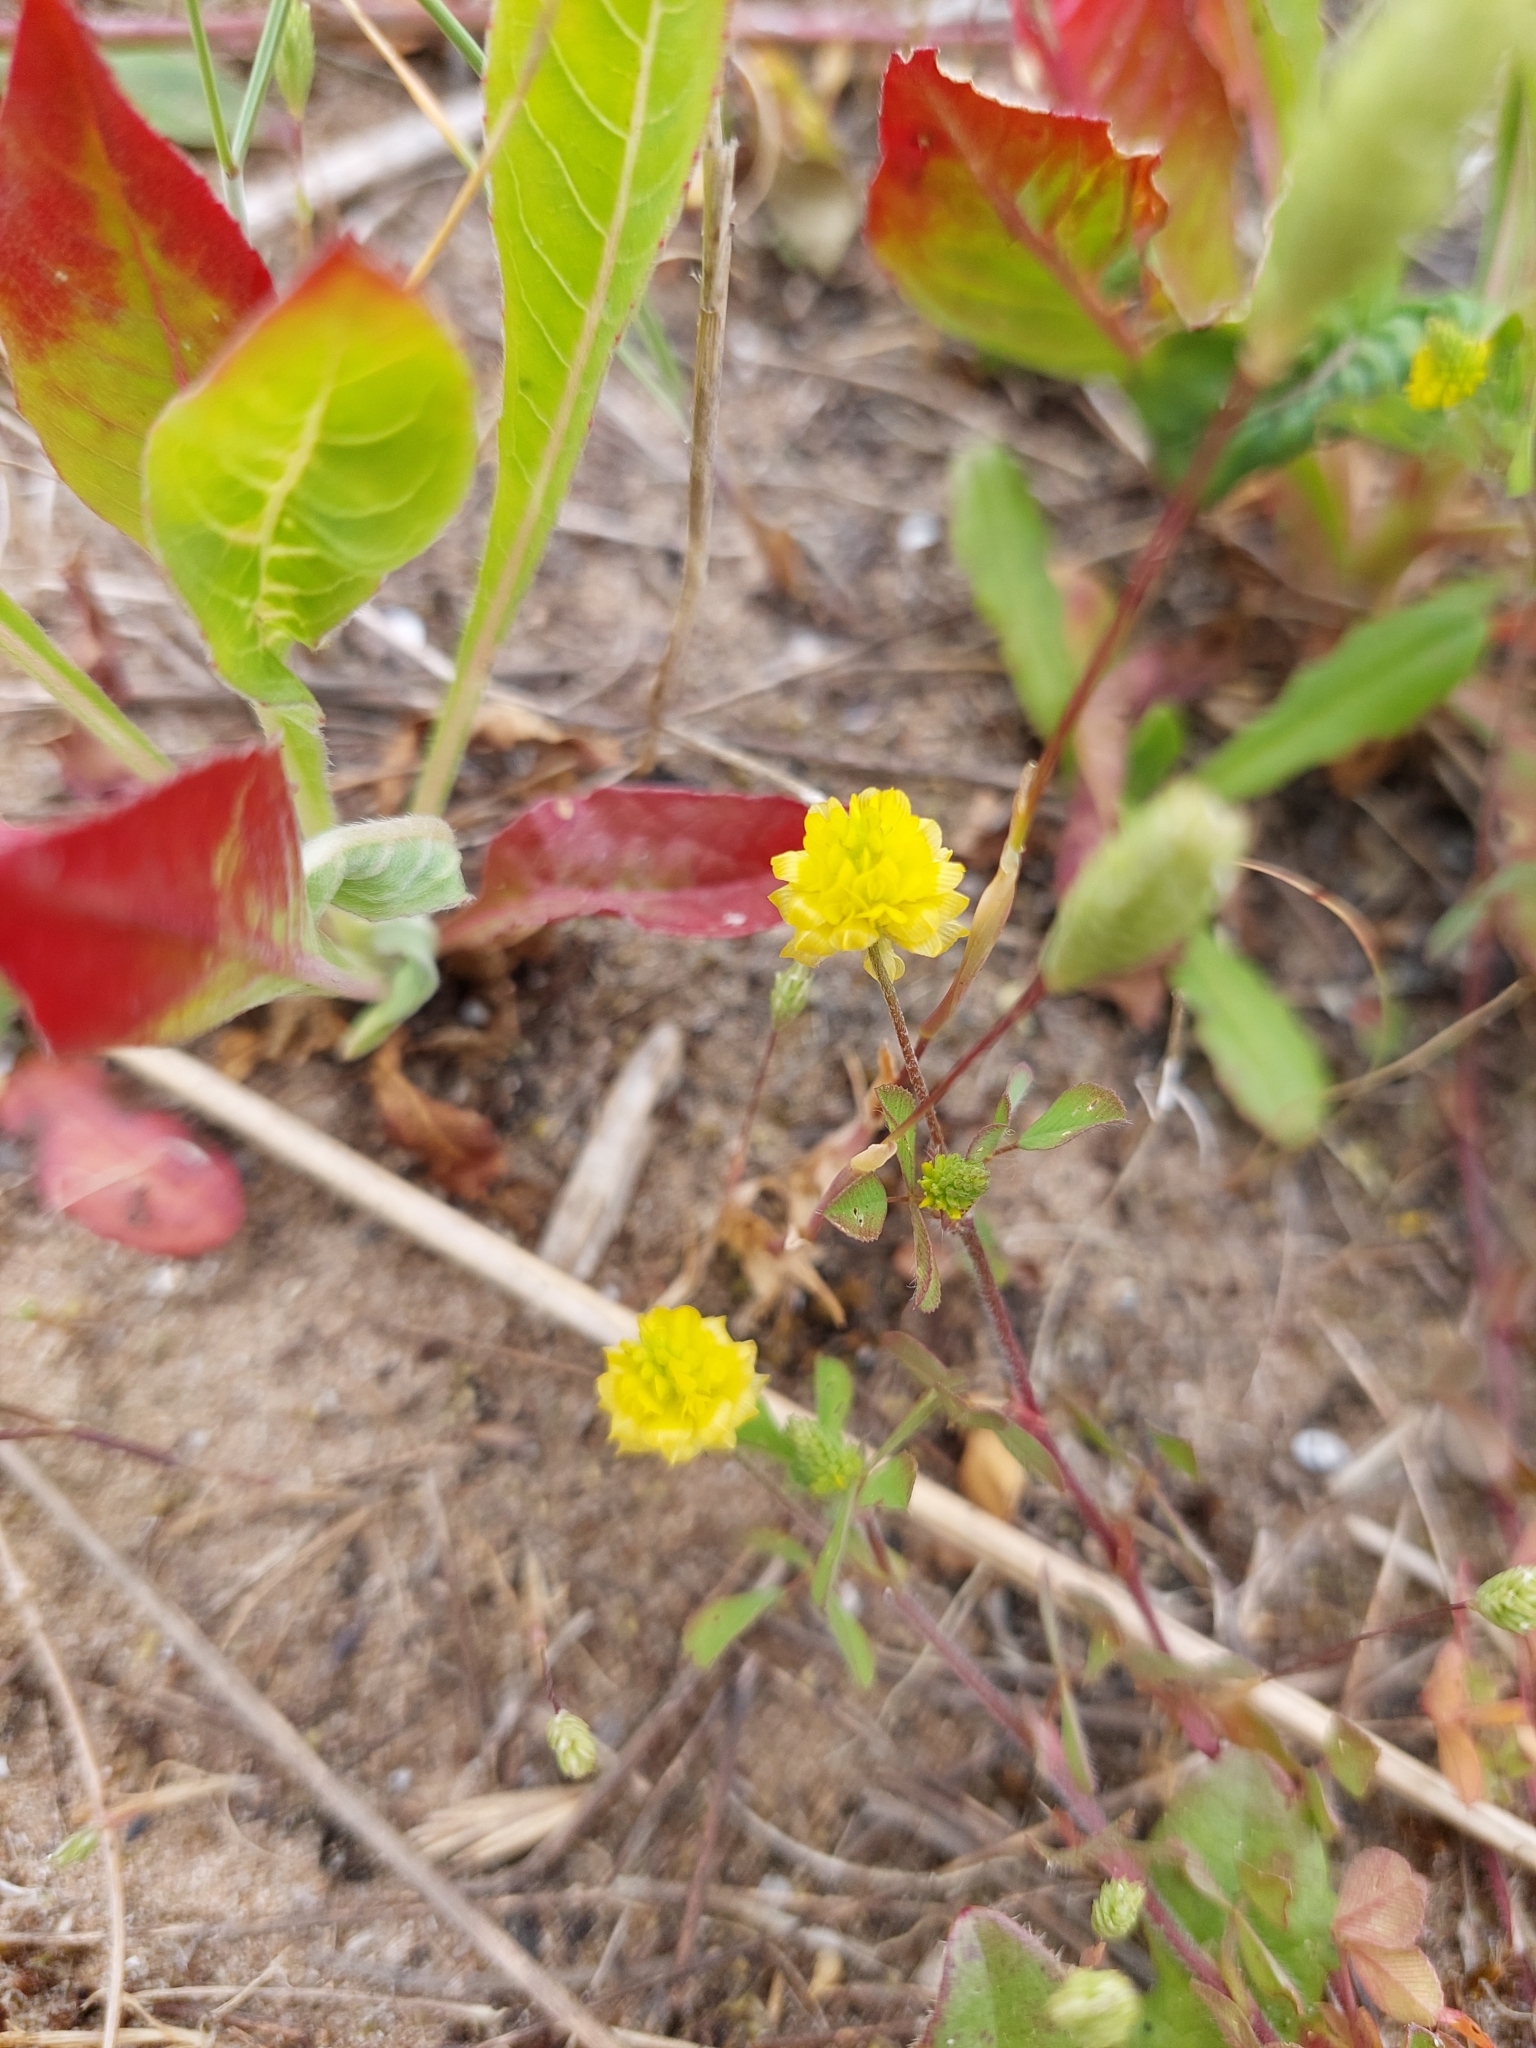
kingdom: Plantae
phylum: Tracheophyta
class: Magnoliopsida
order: Fabales
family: Fabaceae
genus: Trifolium
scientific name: Trifolium campestre
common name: Field clover
